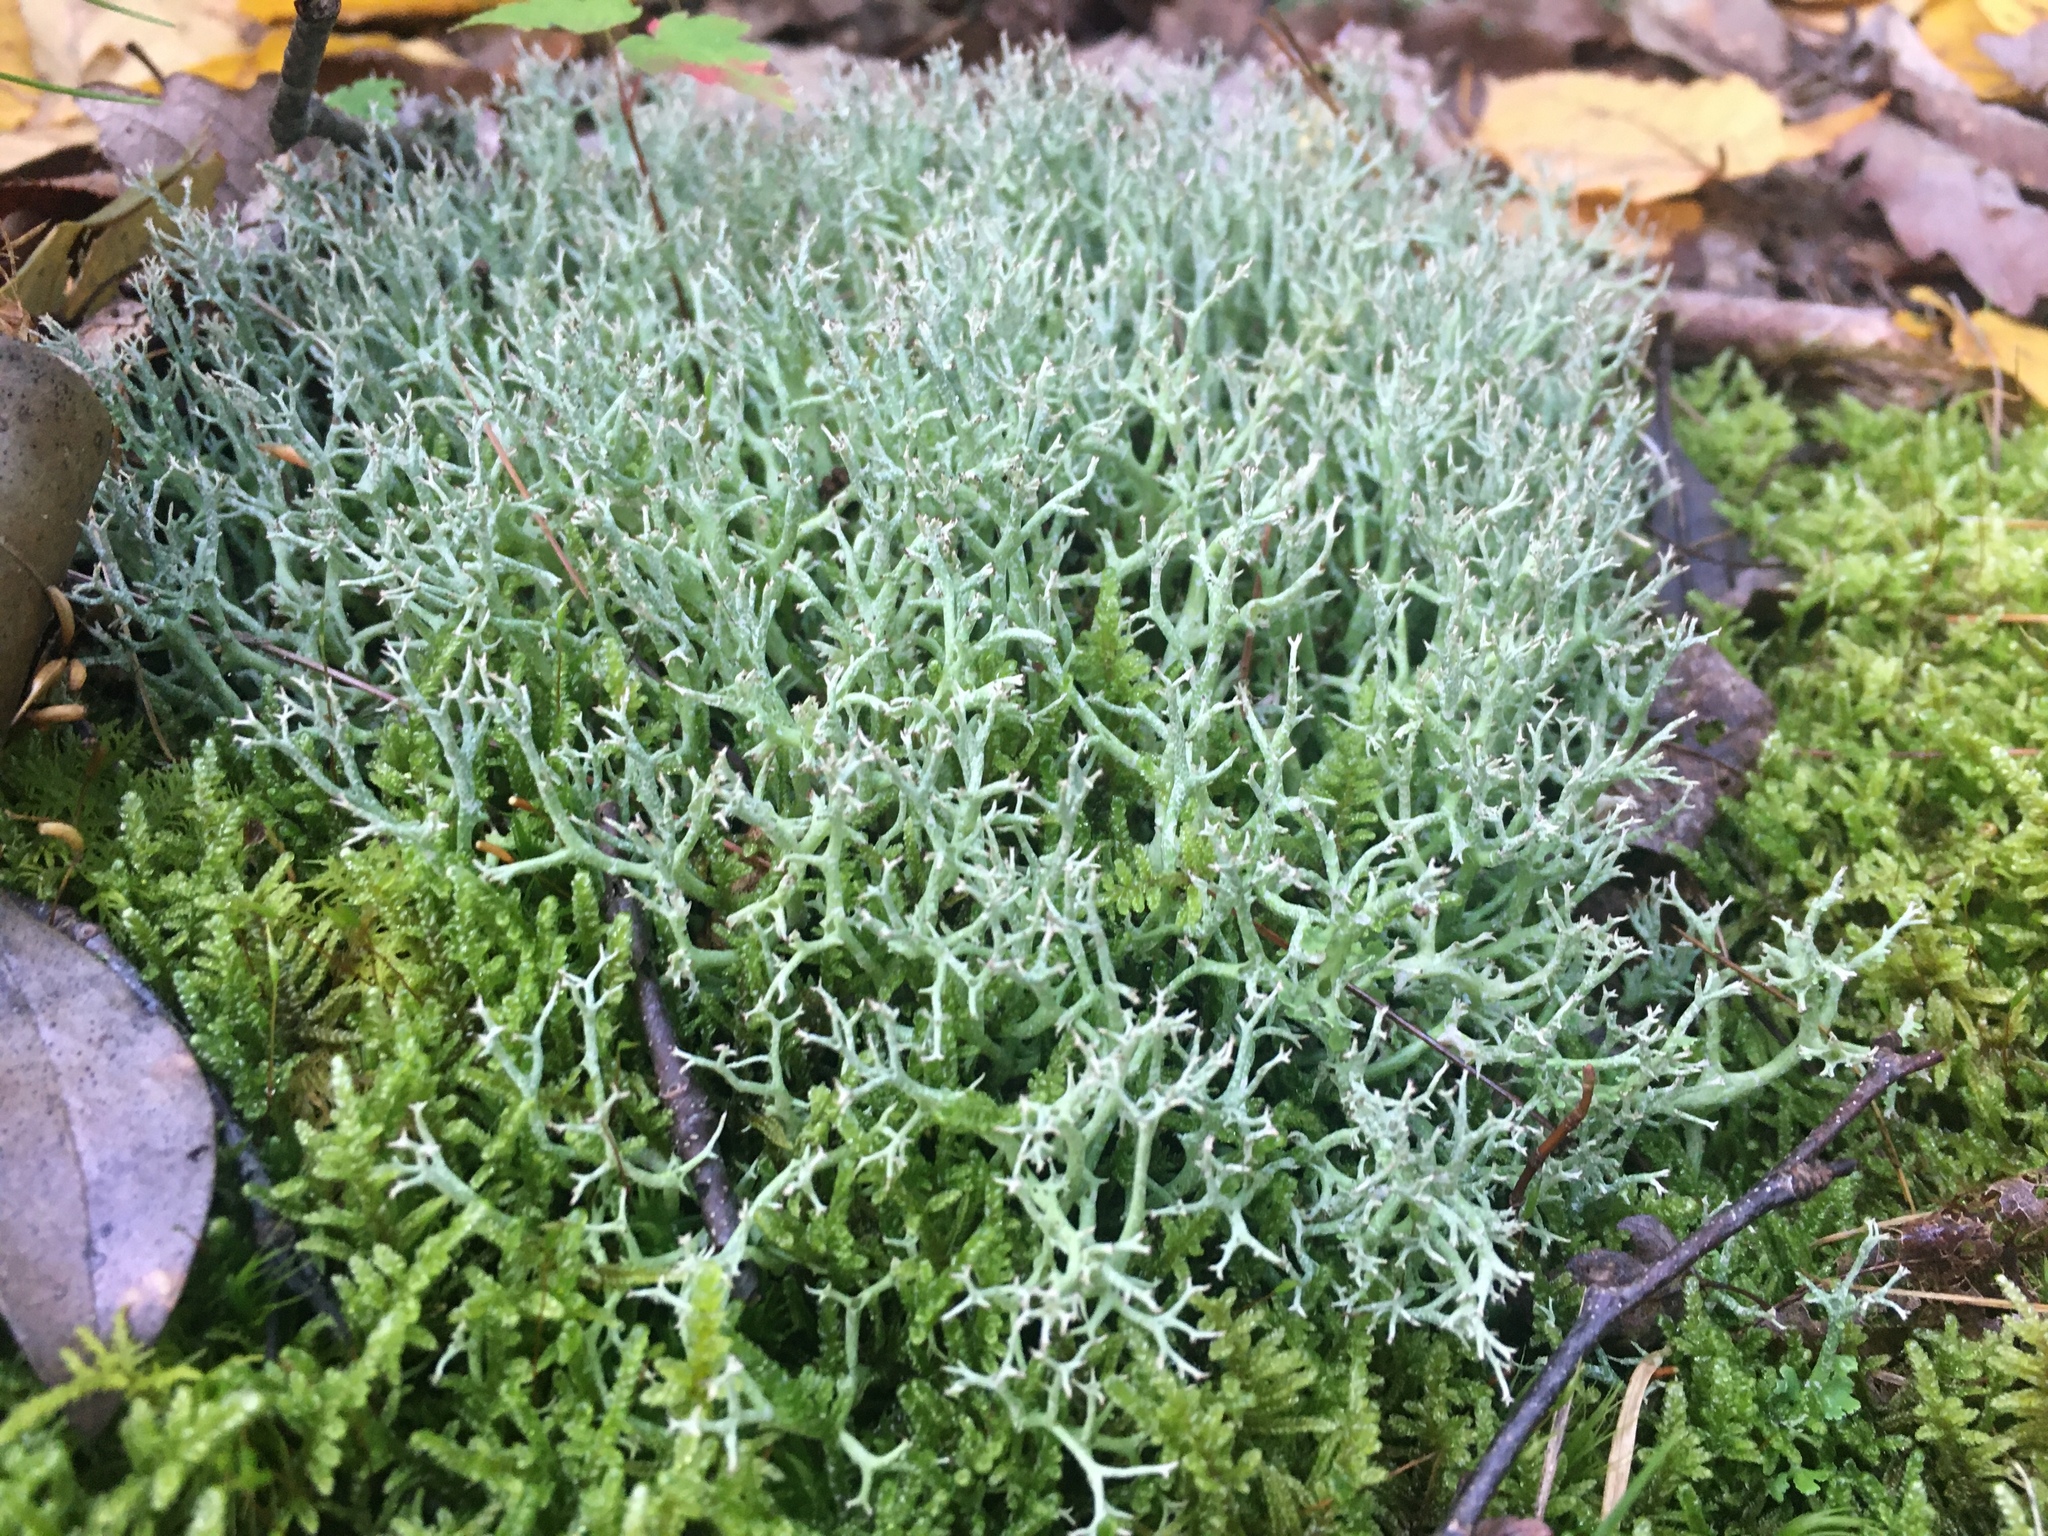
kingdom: Fungi
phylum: Ascomycota
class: Lecanoromycetes
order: Lecanorales
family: Cladoniaceae
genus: Cladonia
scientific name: Cladonia furcata
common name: Many-forked cladonia
